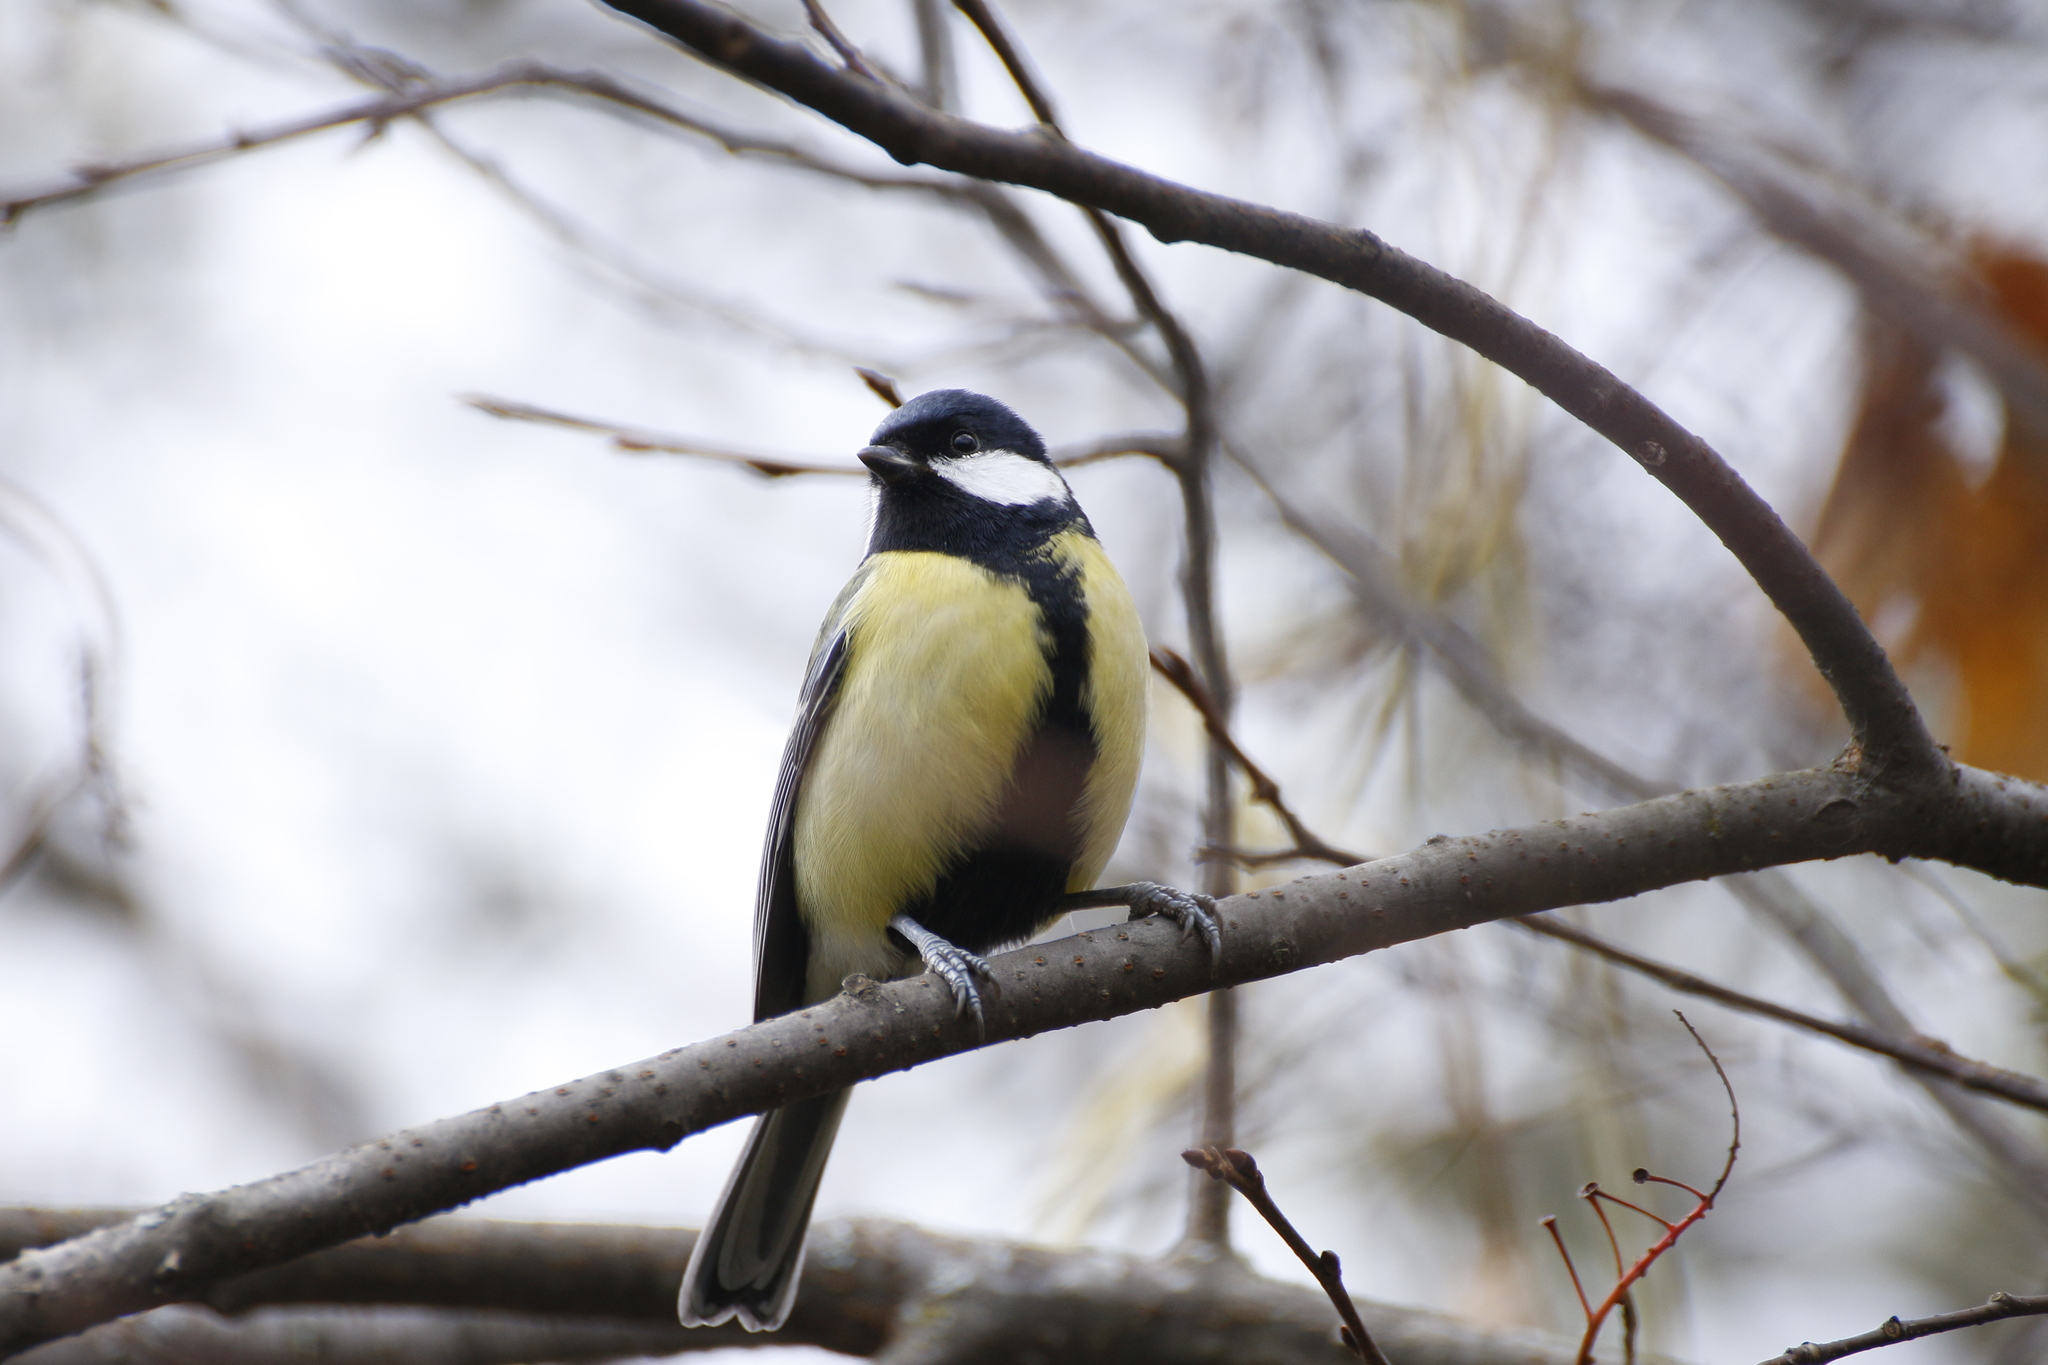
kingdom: Animalia
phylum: Chordata
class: Aves
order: Passeriformes
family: Paridae
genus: Parus
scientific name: Parus major
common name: Great tit
